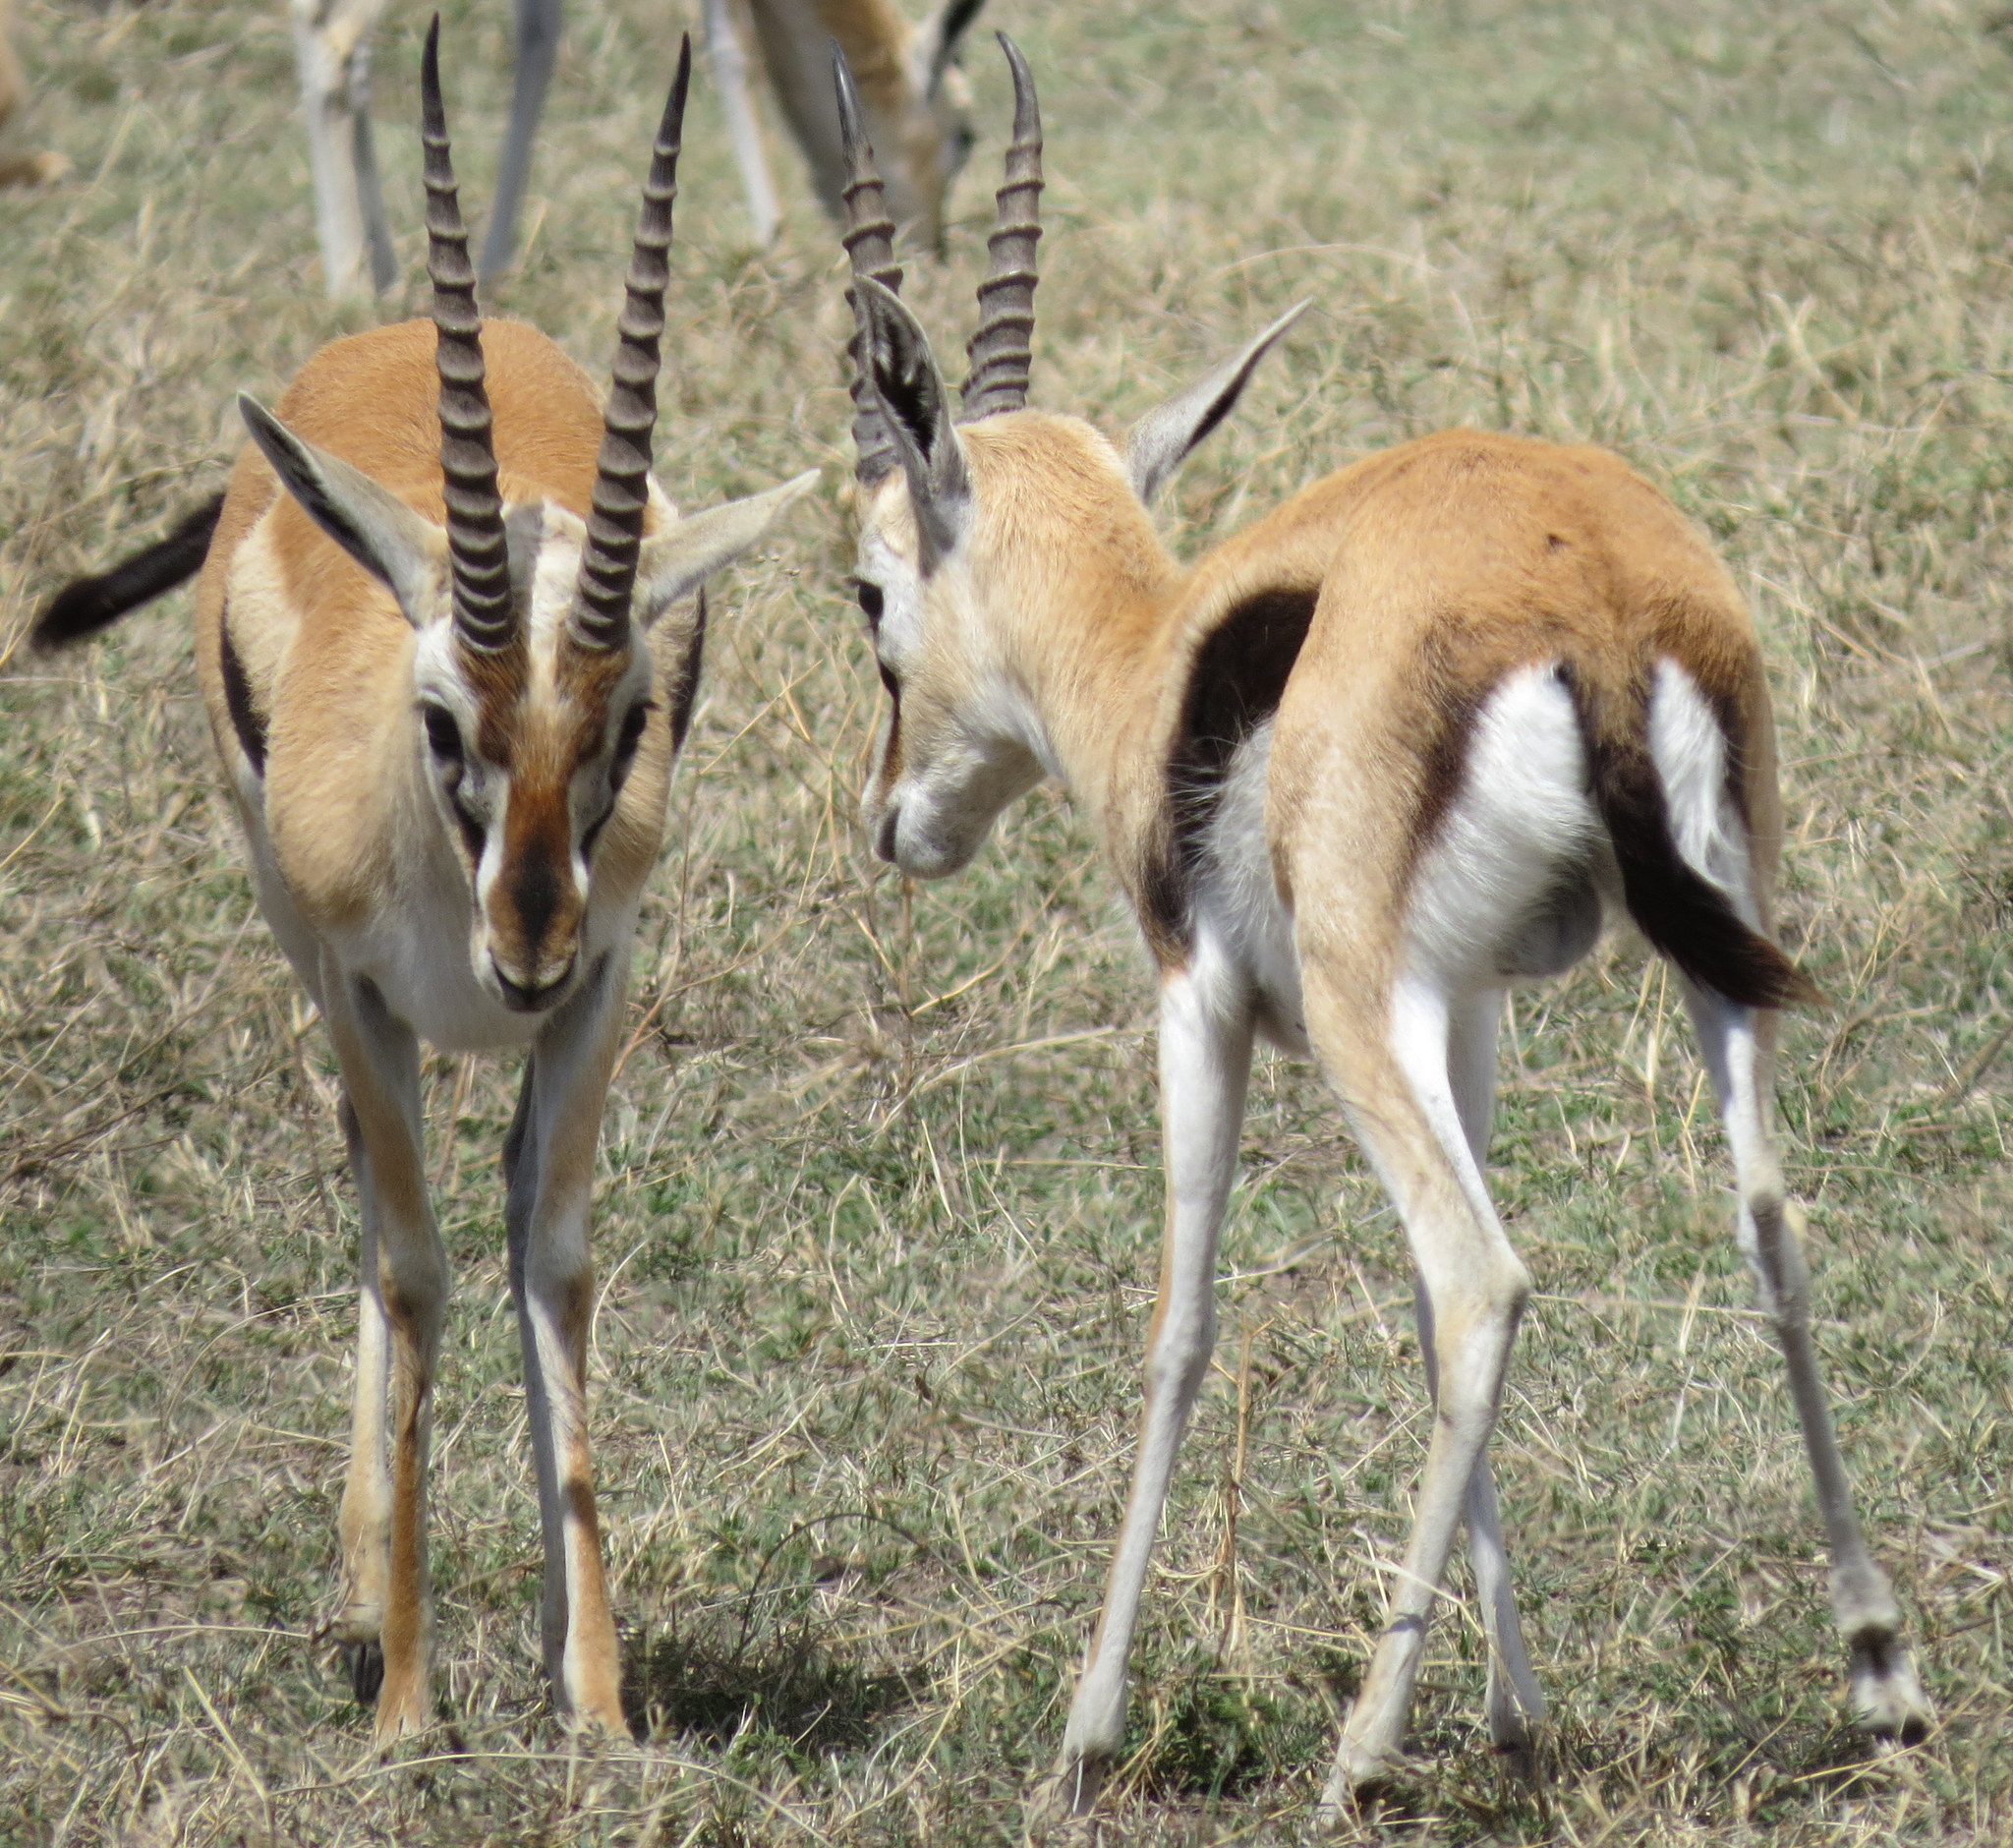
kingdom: Animalia
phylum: Chordata
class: Mammalia
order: Artiodactyla
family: Bovidae
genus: Eudorcas
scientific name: Eudorcas thomsonii
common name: Thomson's gazelle
